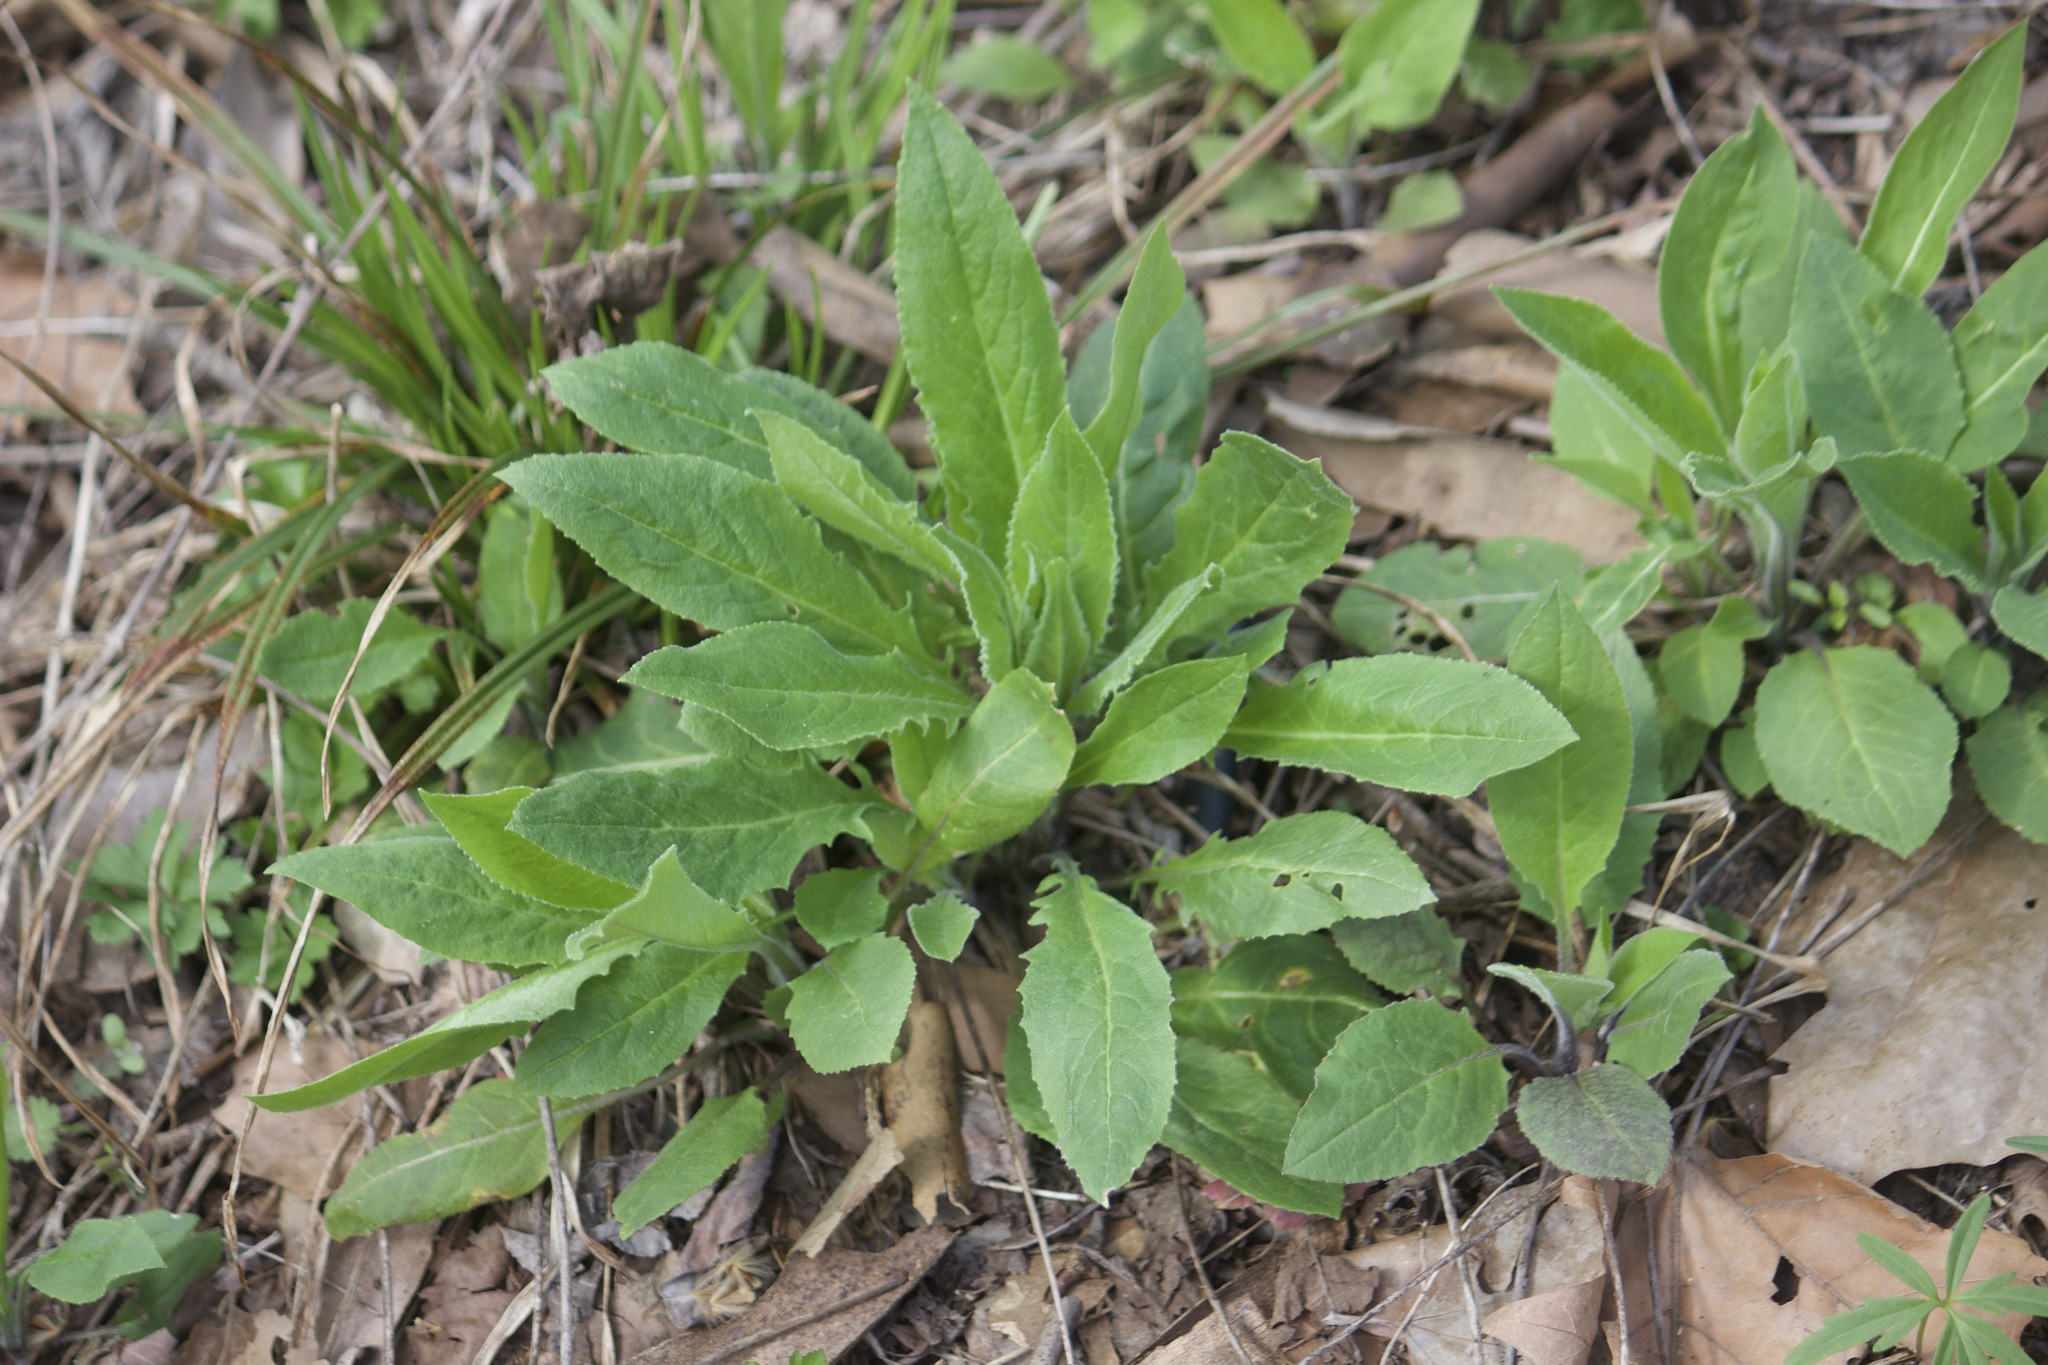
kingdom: Plantae
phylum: Tracheophyta
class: Magnoliopsida
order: Brassicales
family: Brassicaceae
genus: Hesperis
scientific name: Hesperis matronalis
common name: Dame's-violet
